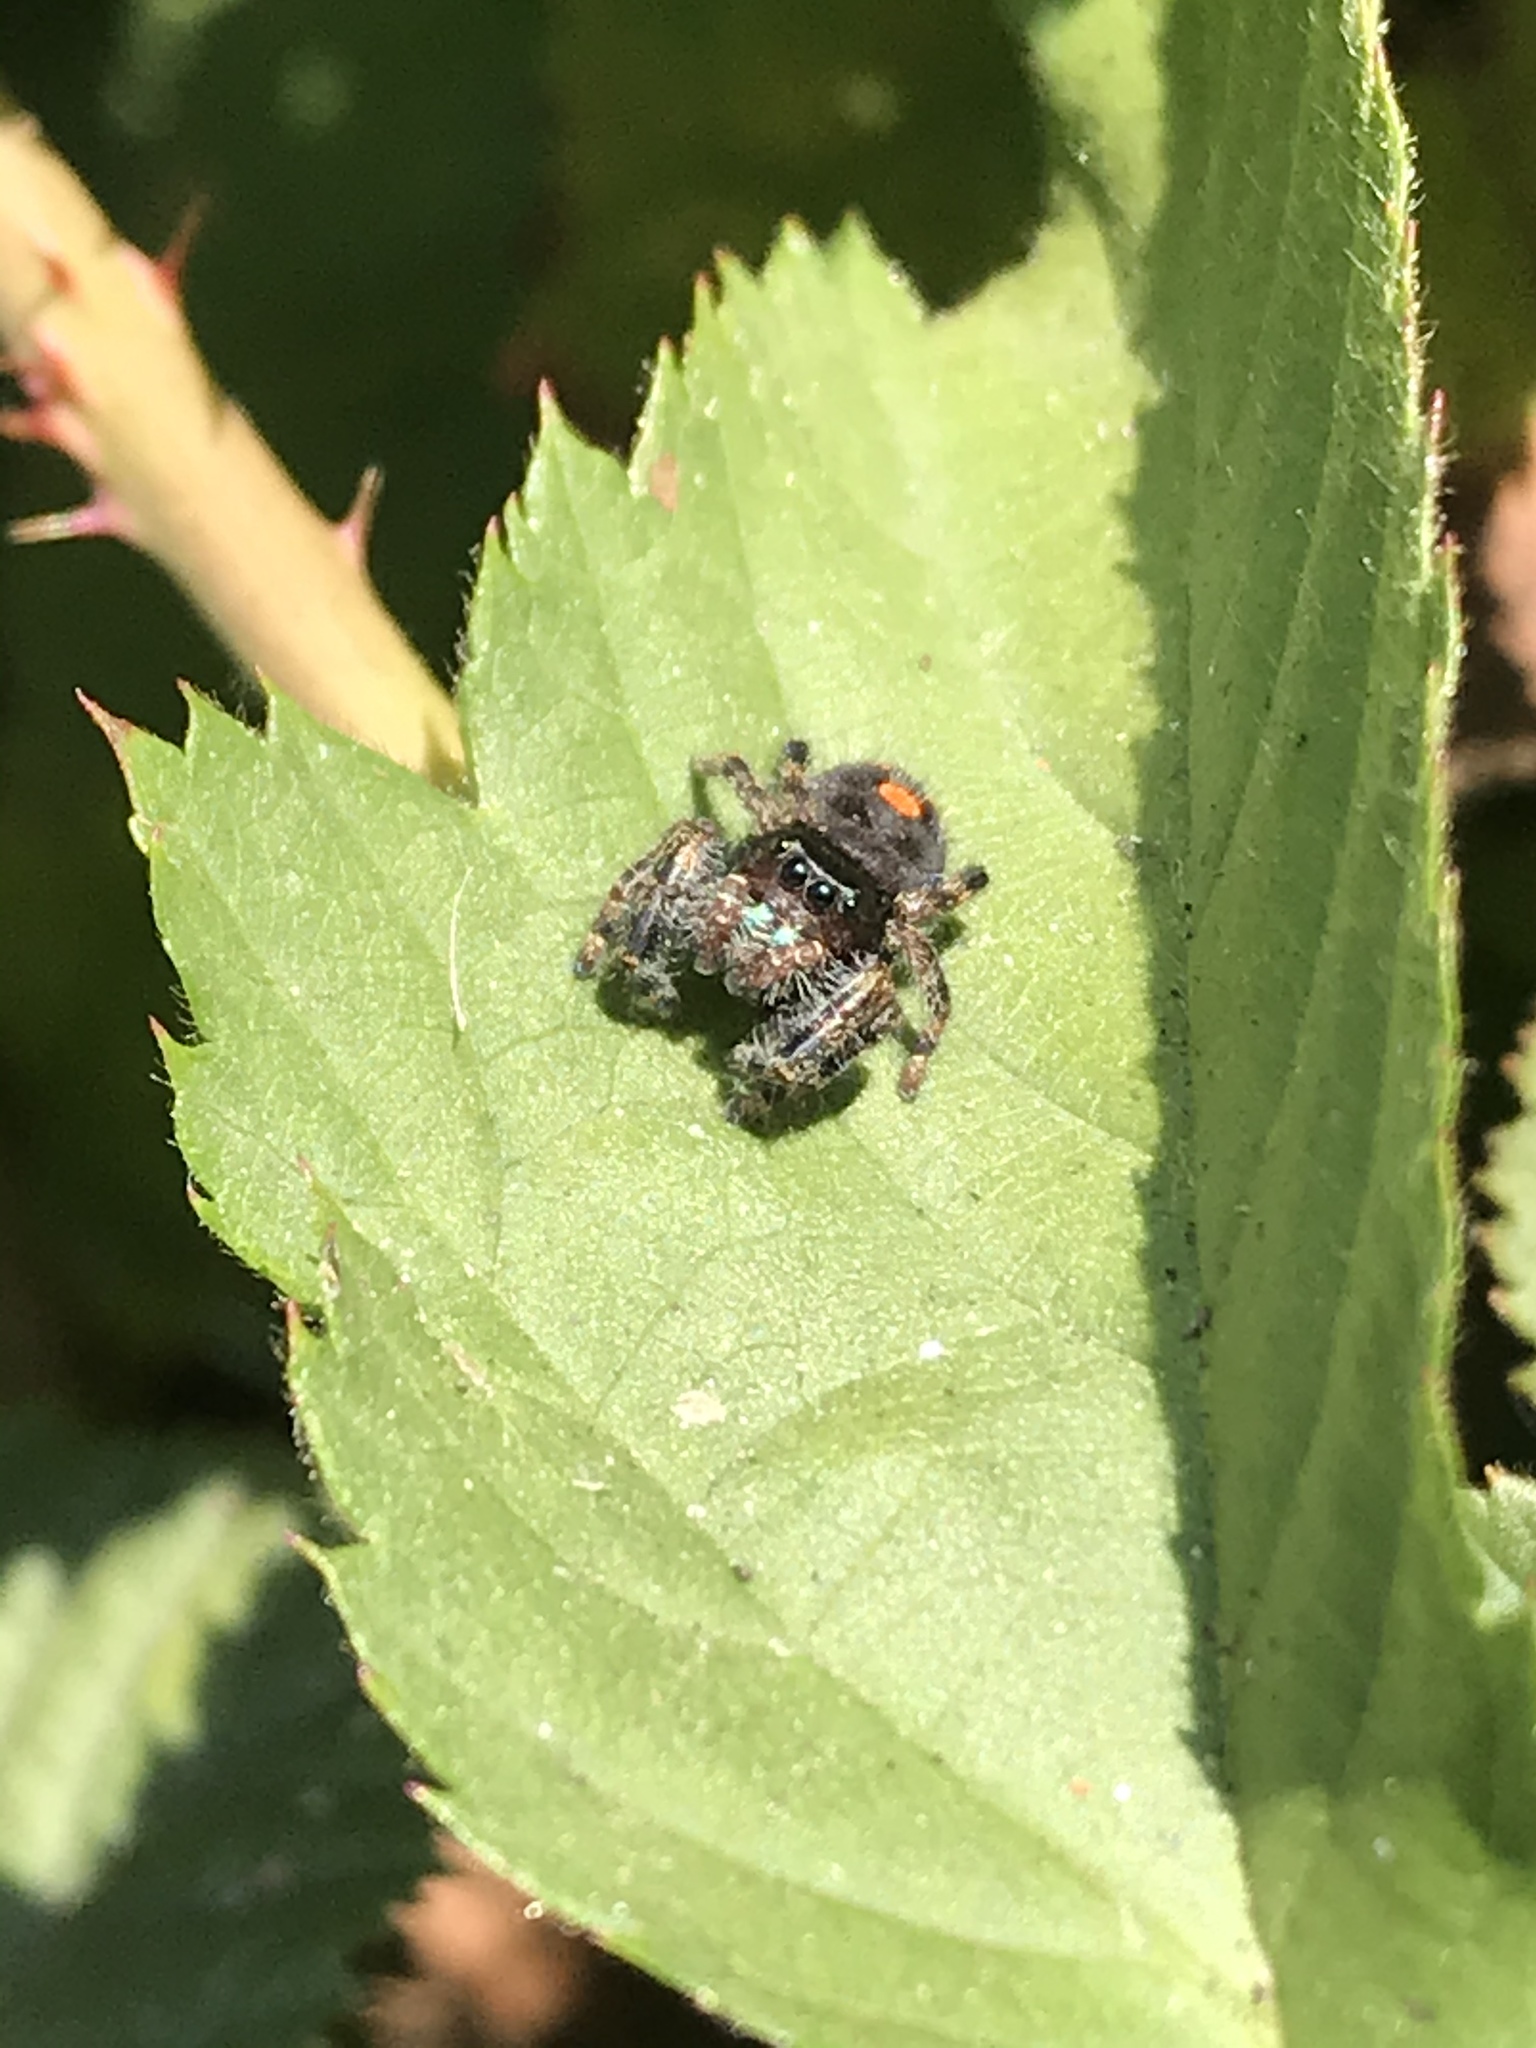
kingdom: Animalia
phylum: Arthropoda
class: Arachnida
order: Araneae
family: Salticidae
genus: Phidippus
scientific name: Phidippus audax
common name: Bold jumper
